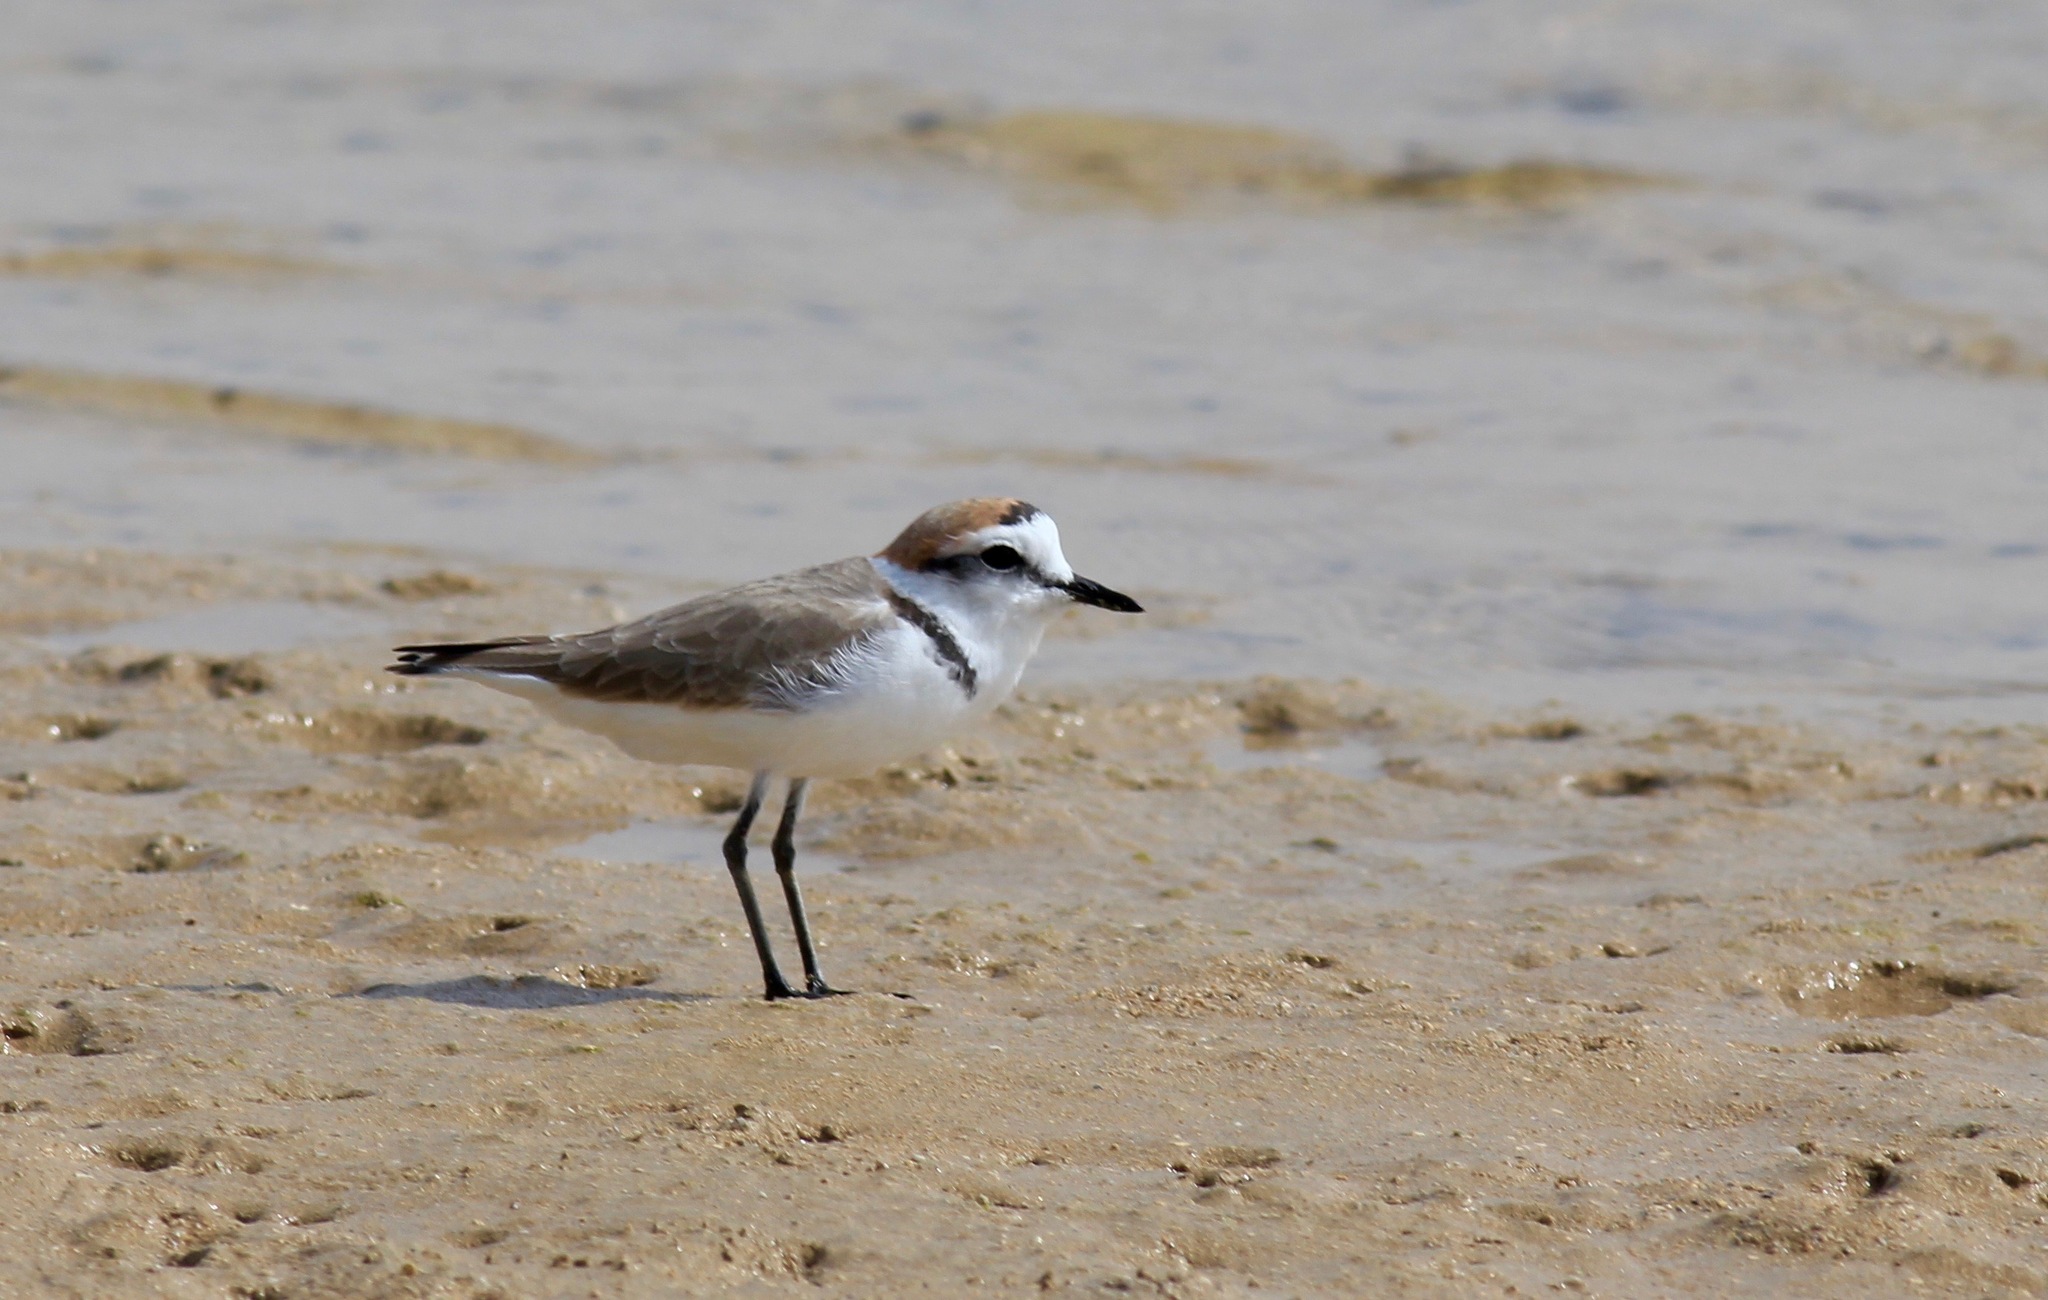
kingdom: Animalia
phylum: Chordata
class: Aves
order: Charadriiformes
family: Charadriidae
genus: Charadrius
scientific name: Charadrius alexandrinus
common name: Kentish plover
